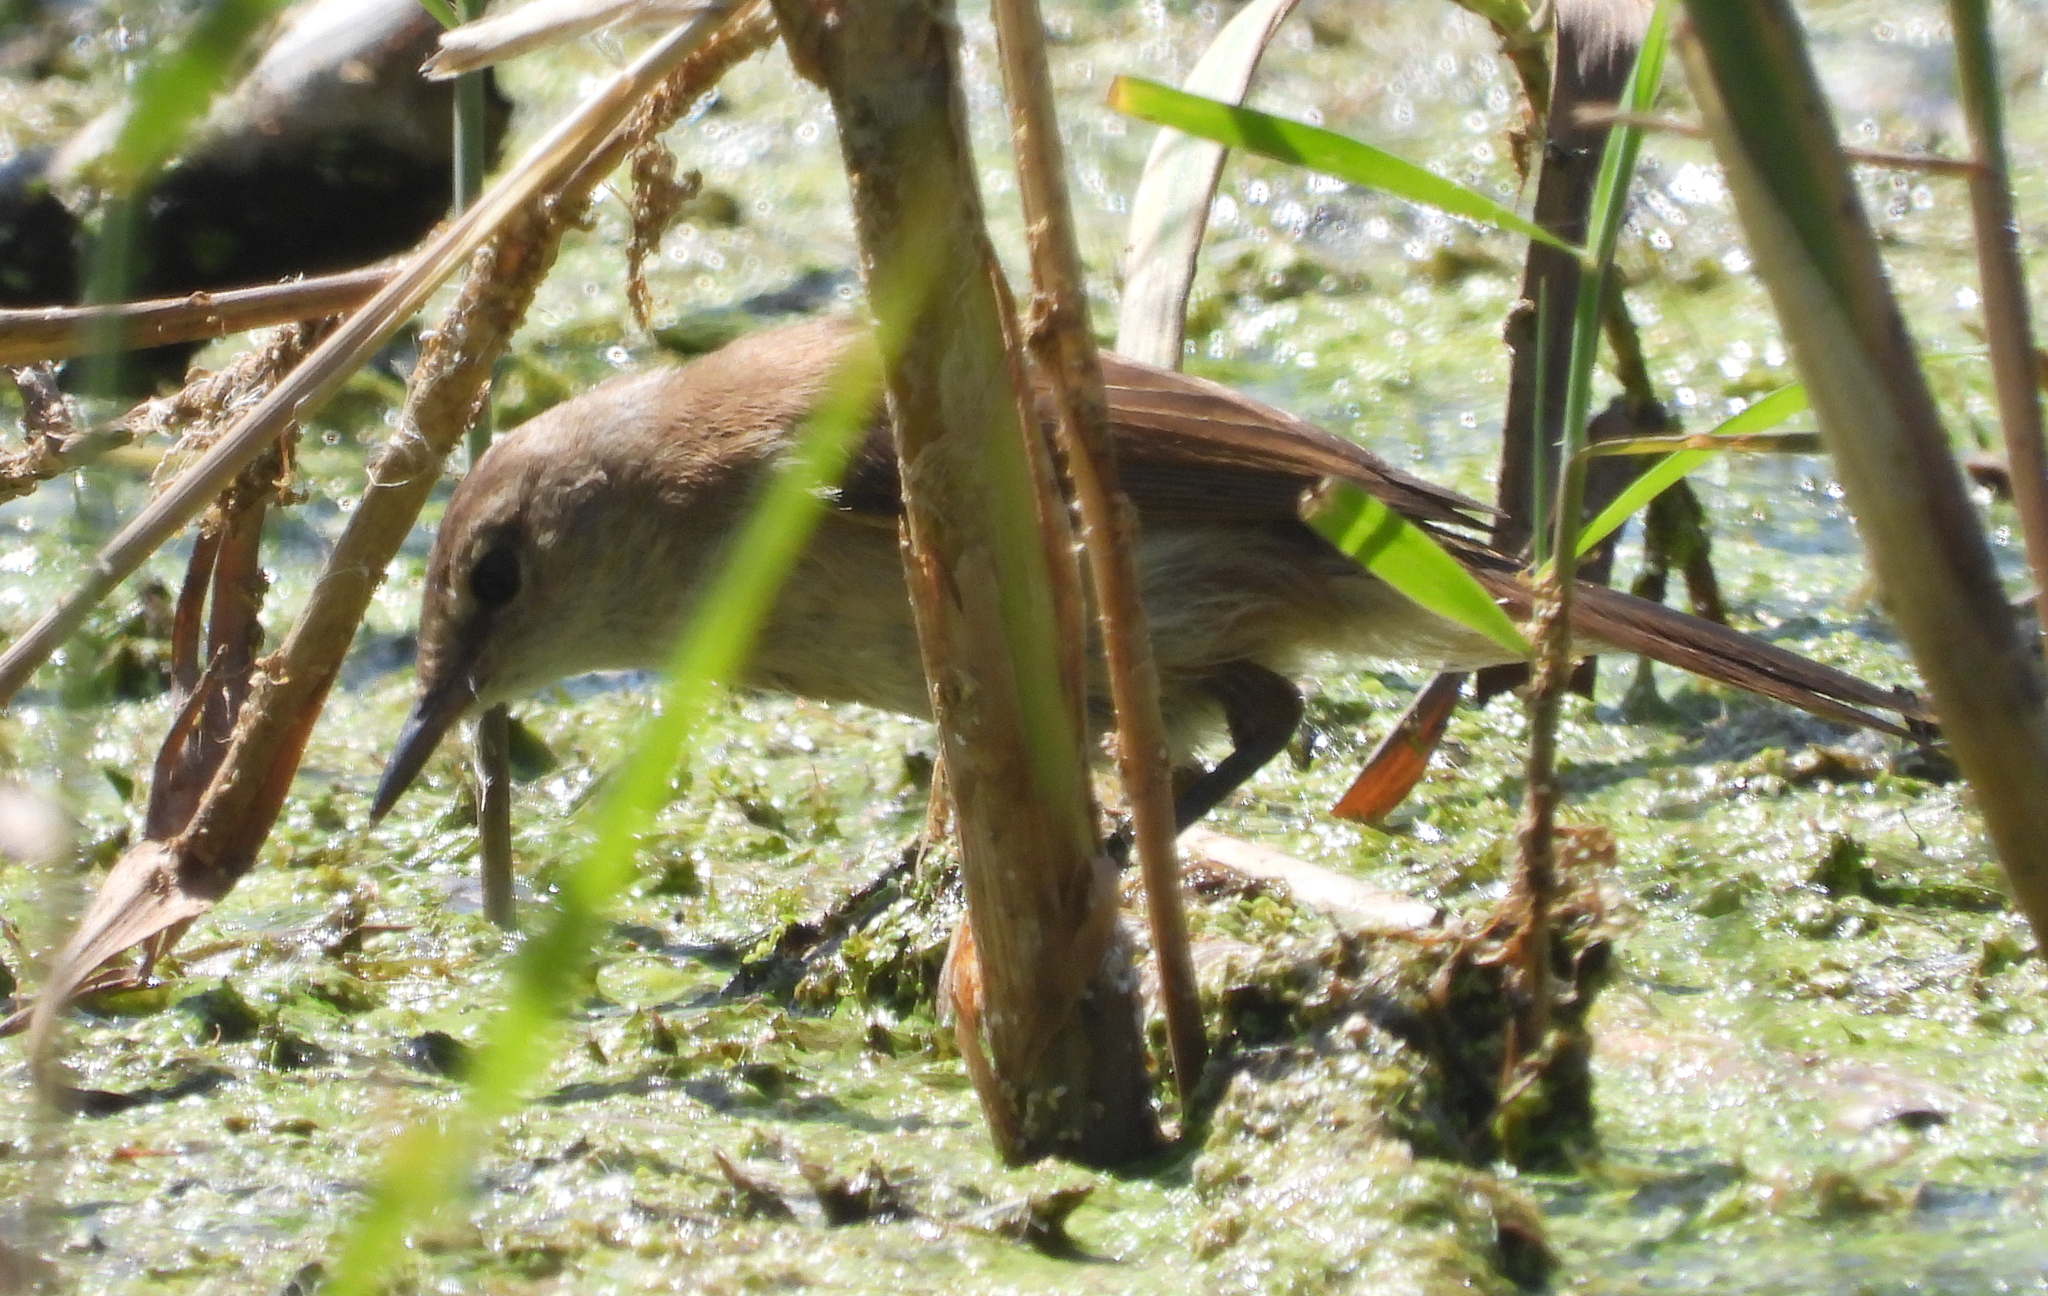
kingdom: Animalia
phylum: Chordata
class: Aves
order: Passeriformes
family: Acrocephalidae
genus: Acrocephalus
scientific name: Acrocephalus gracilirostris
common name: Lesser swamp warbler
